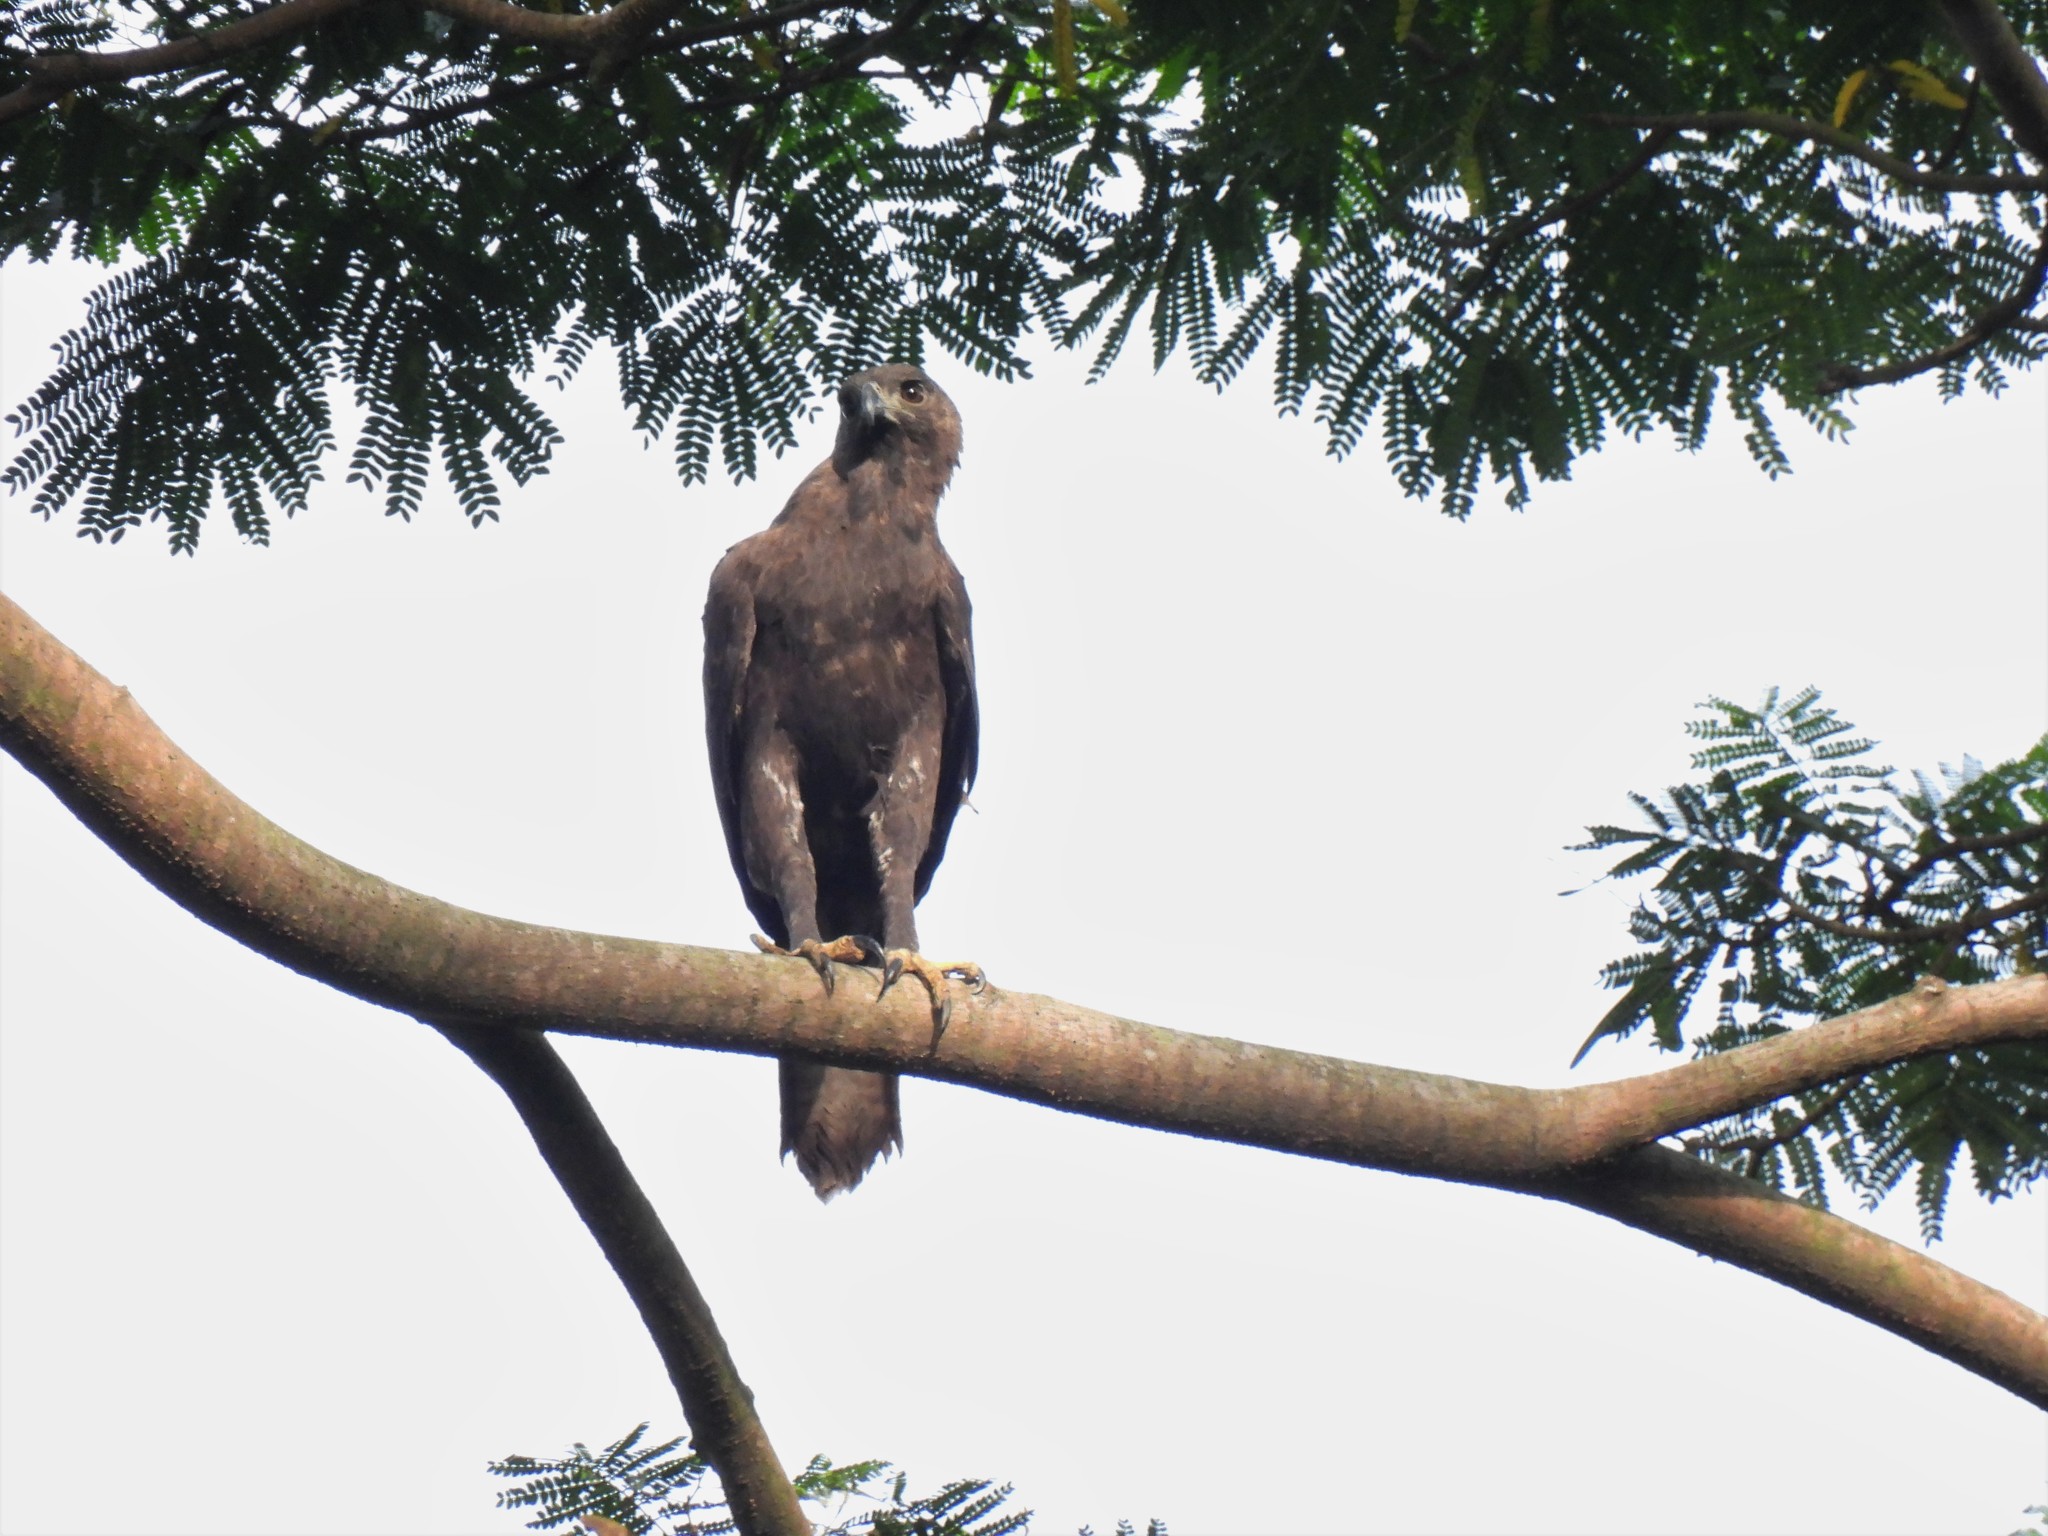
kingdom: Animalia
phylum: Chordata
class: Aves
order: Accipitriformes
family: Accipitridae
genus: Nisaetus
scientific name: Nisaetus cirrhatus
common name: Changeable hawk-eagle
